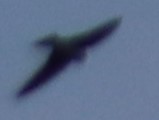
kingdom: Animalia
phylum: Chordata
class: Aves
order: Apodiformes
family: Apodidae
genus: Chaetura
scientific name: Chaetura pelagica
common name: Chimney swift
